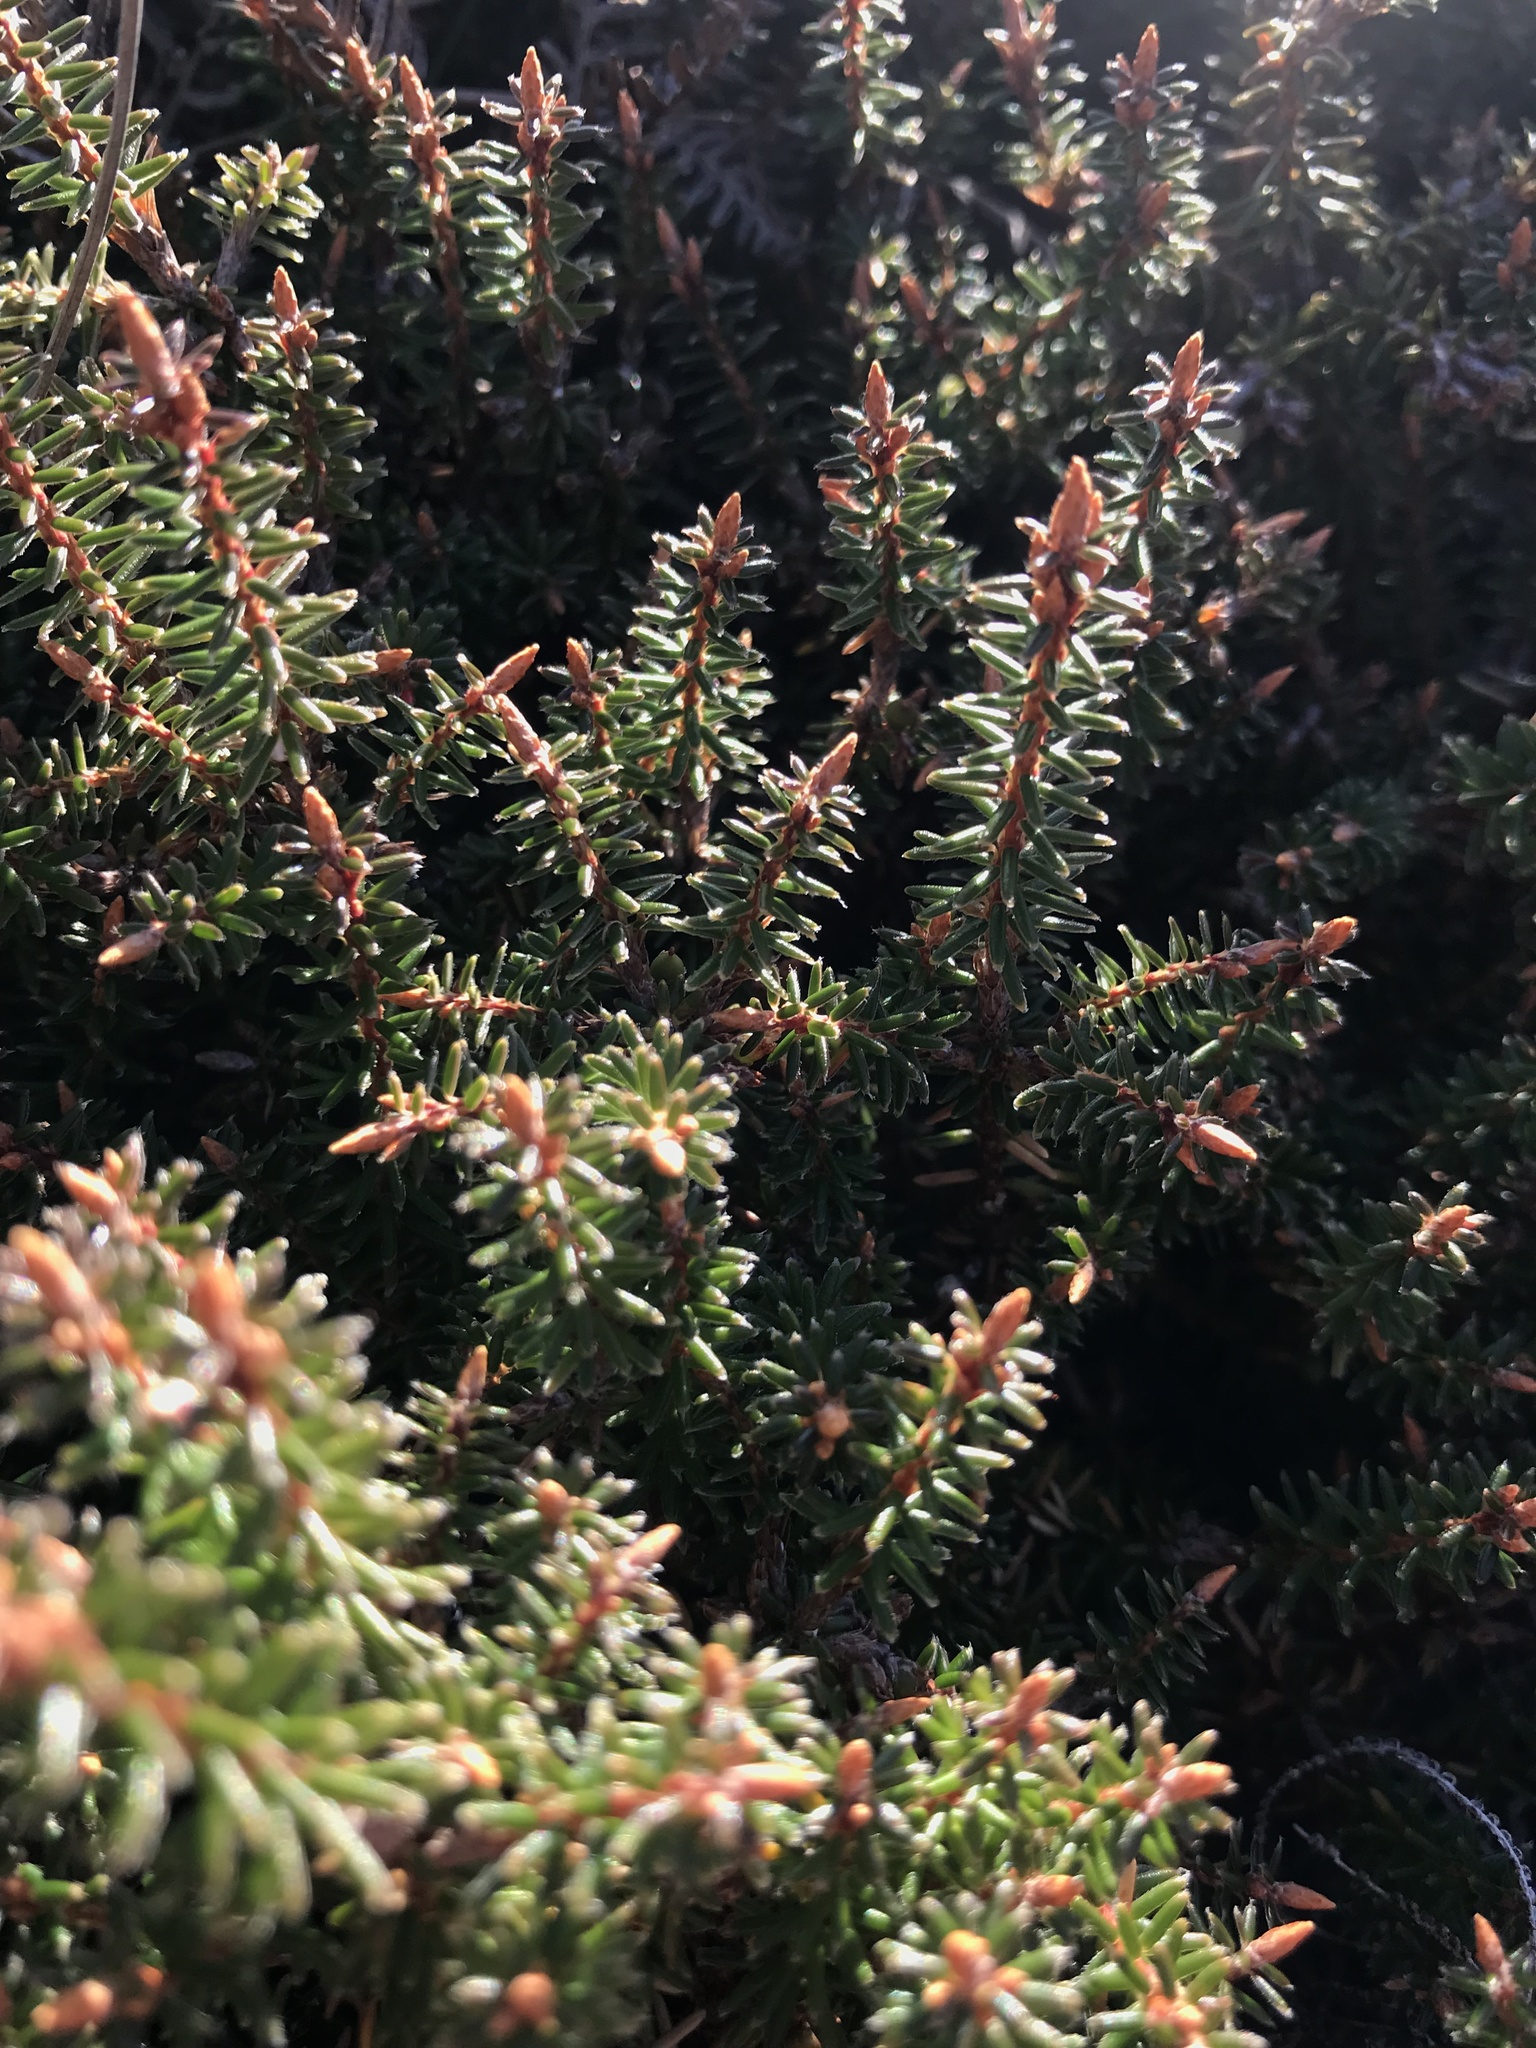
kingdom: Plantae
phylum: Tracheophyta
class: Magnoliopsida
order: Ericales
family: Ericaceae
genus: Androstoma
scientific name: Androstoma empetrifolia
